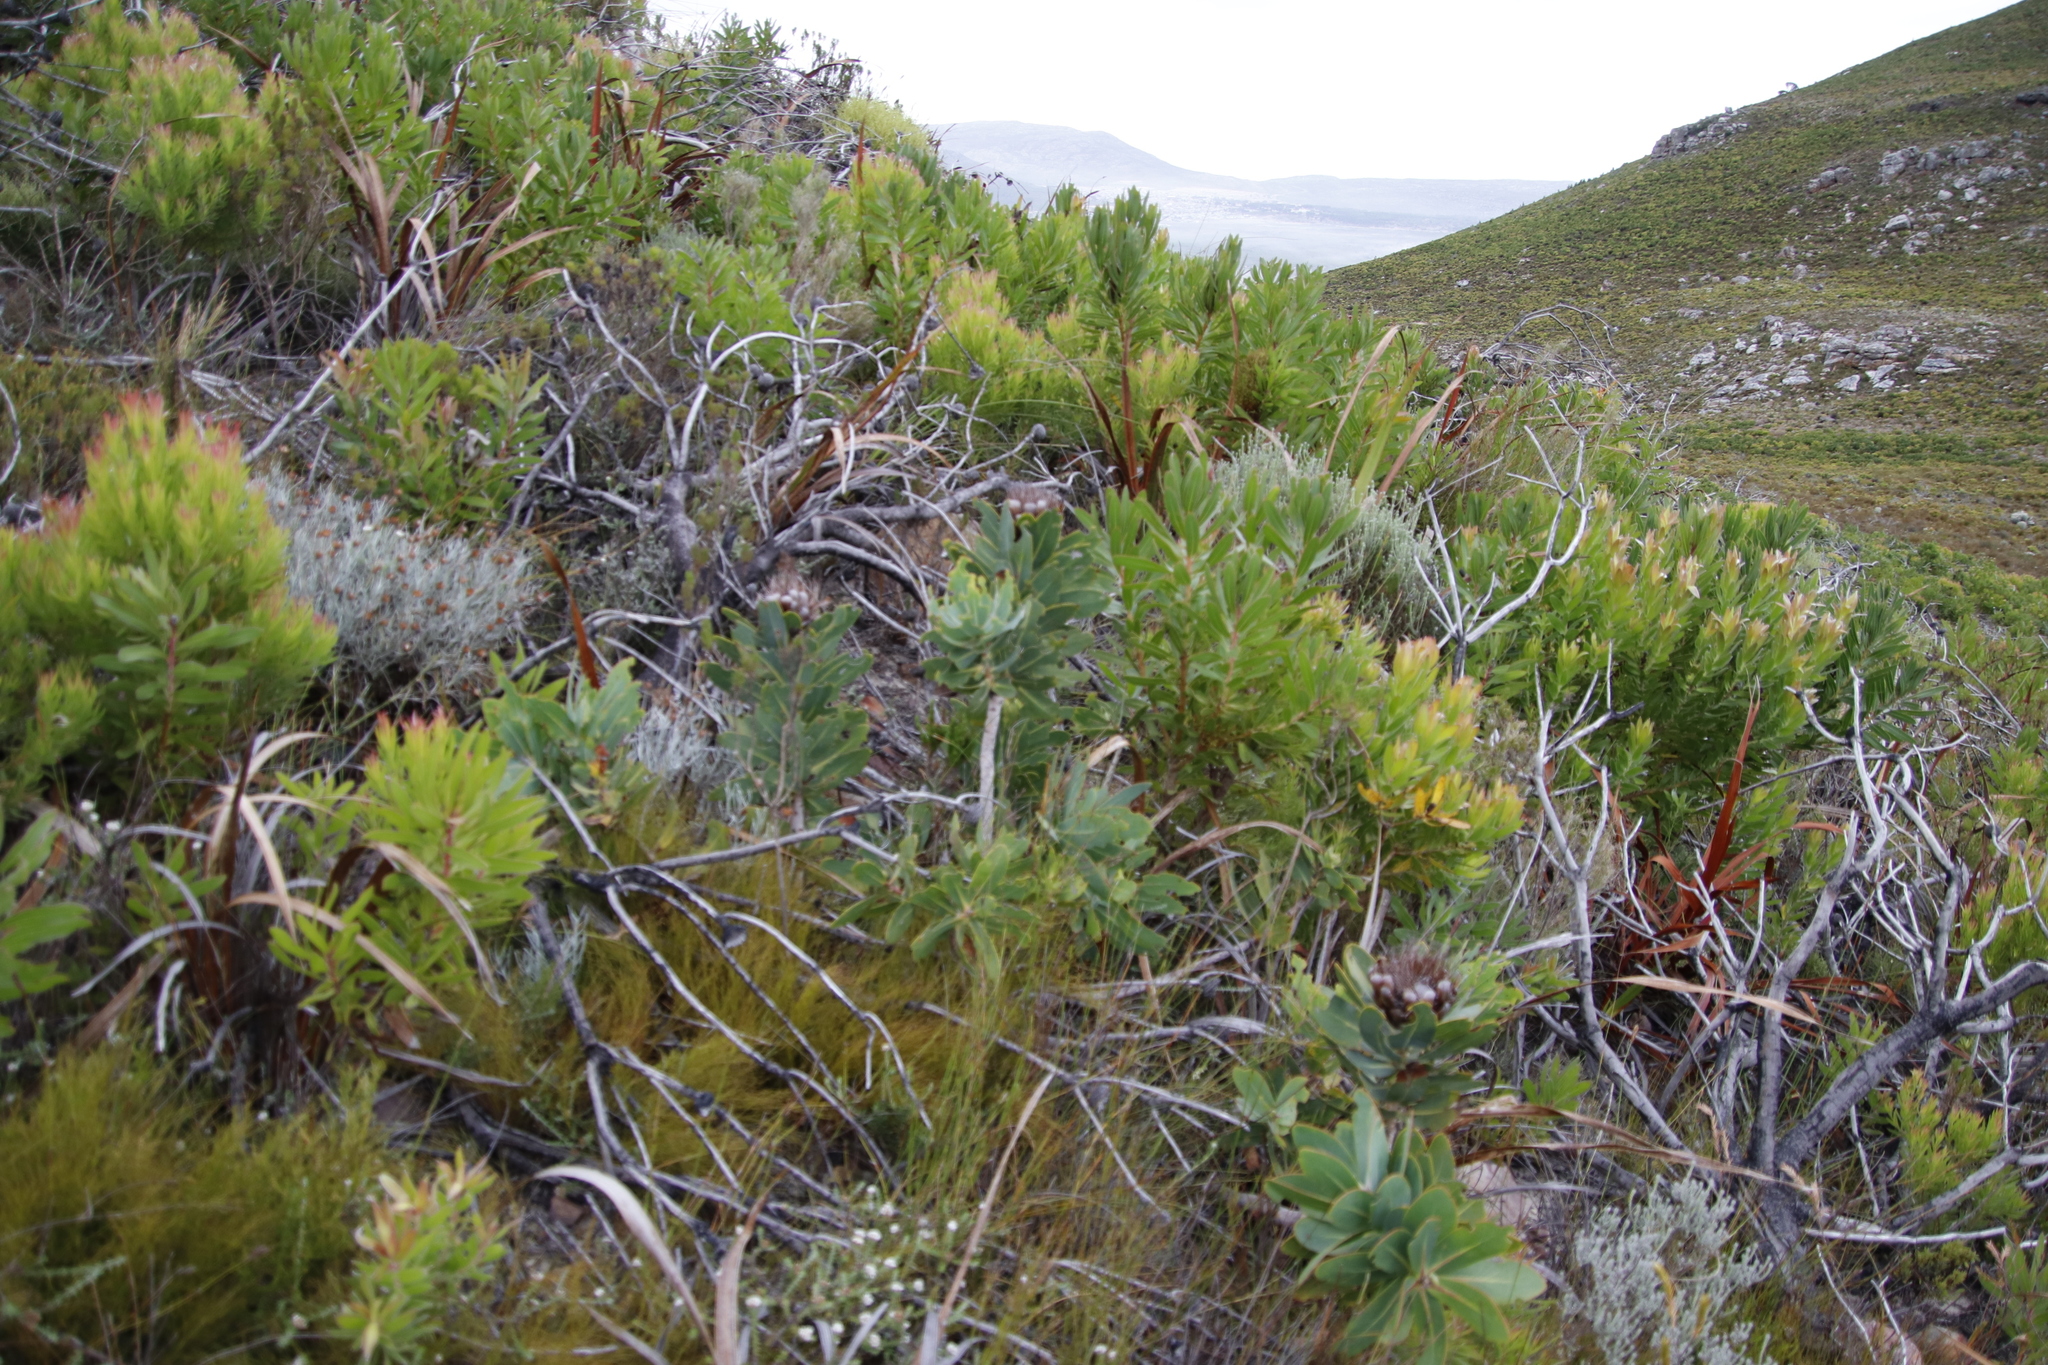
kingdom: Plantae
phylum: Tracheophyta
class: Magnoliopsida
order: Proteales
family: Proteaceae
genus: Protea
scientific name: Protea nitida
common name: Tree protea
